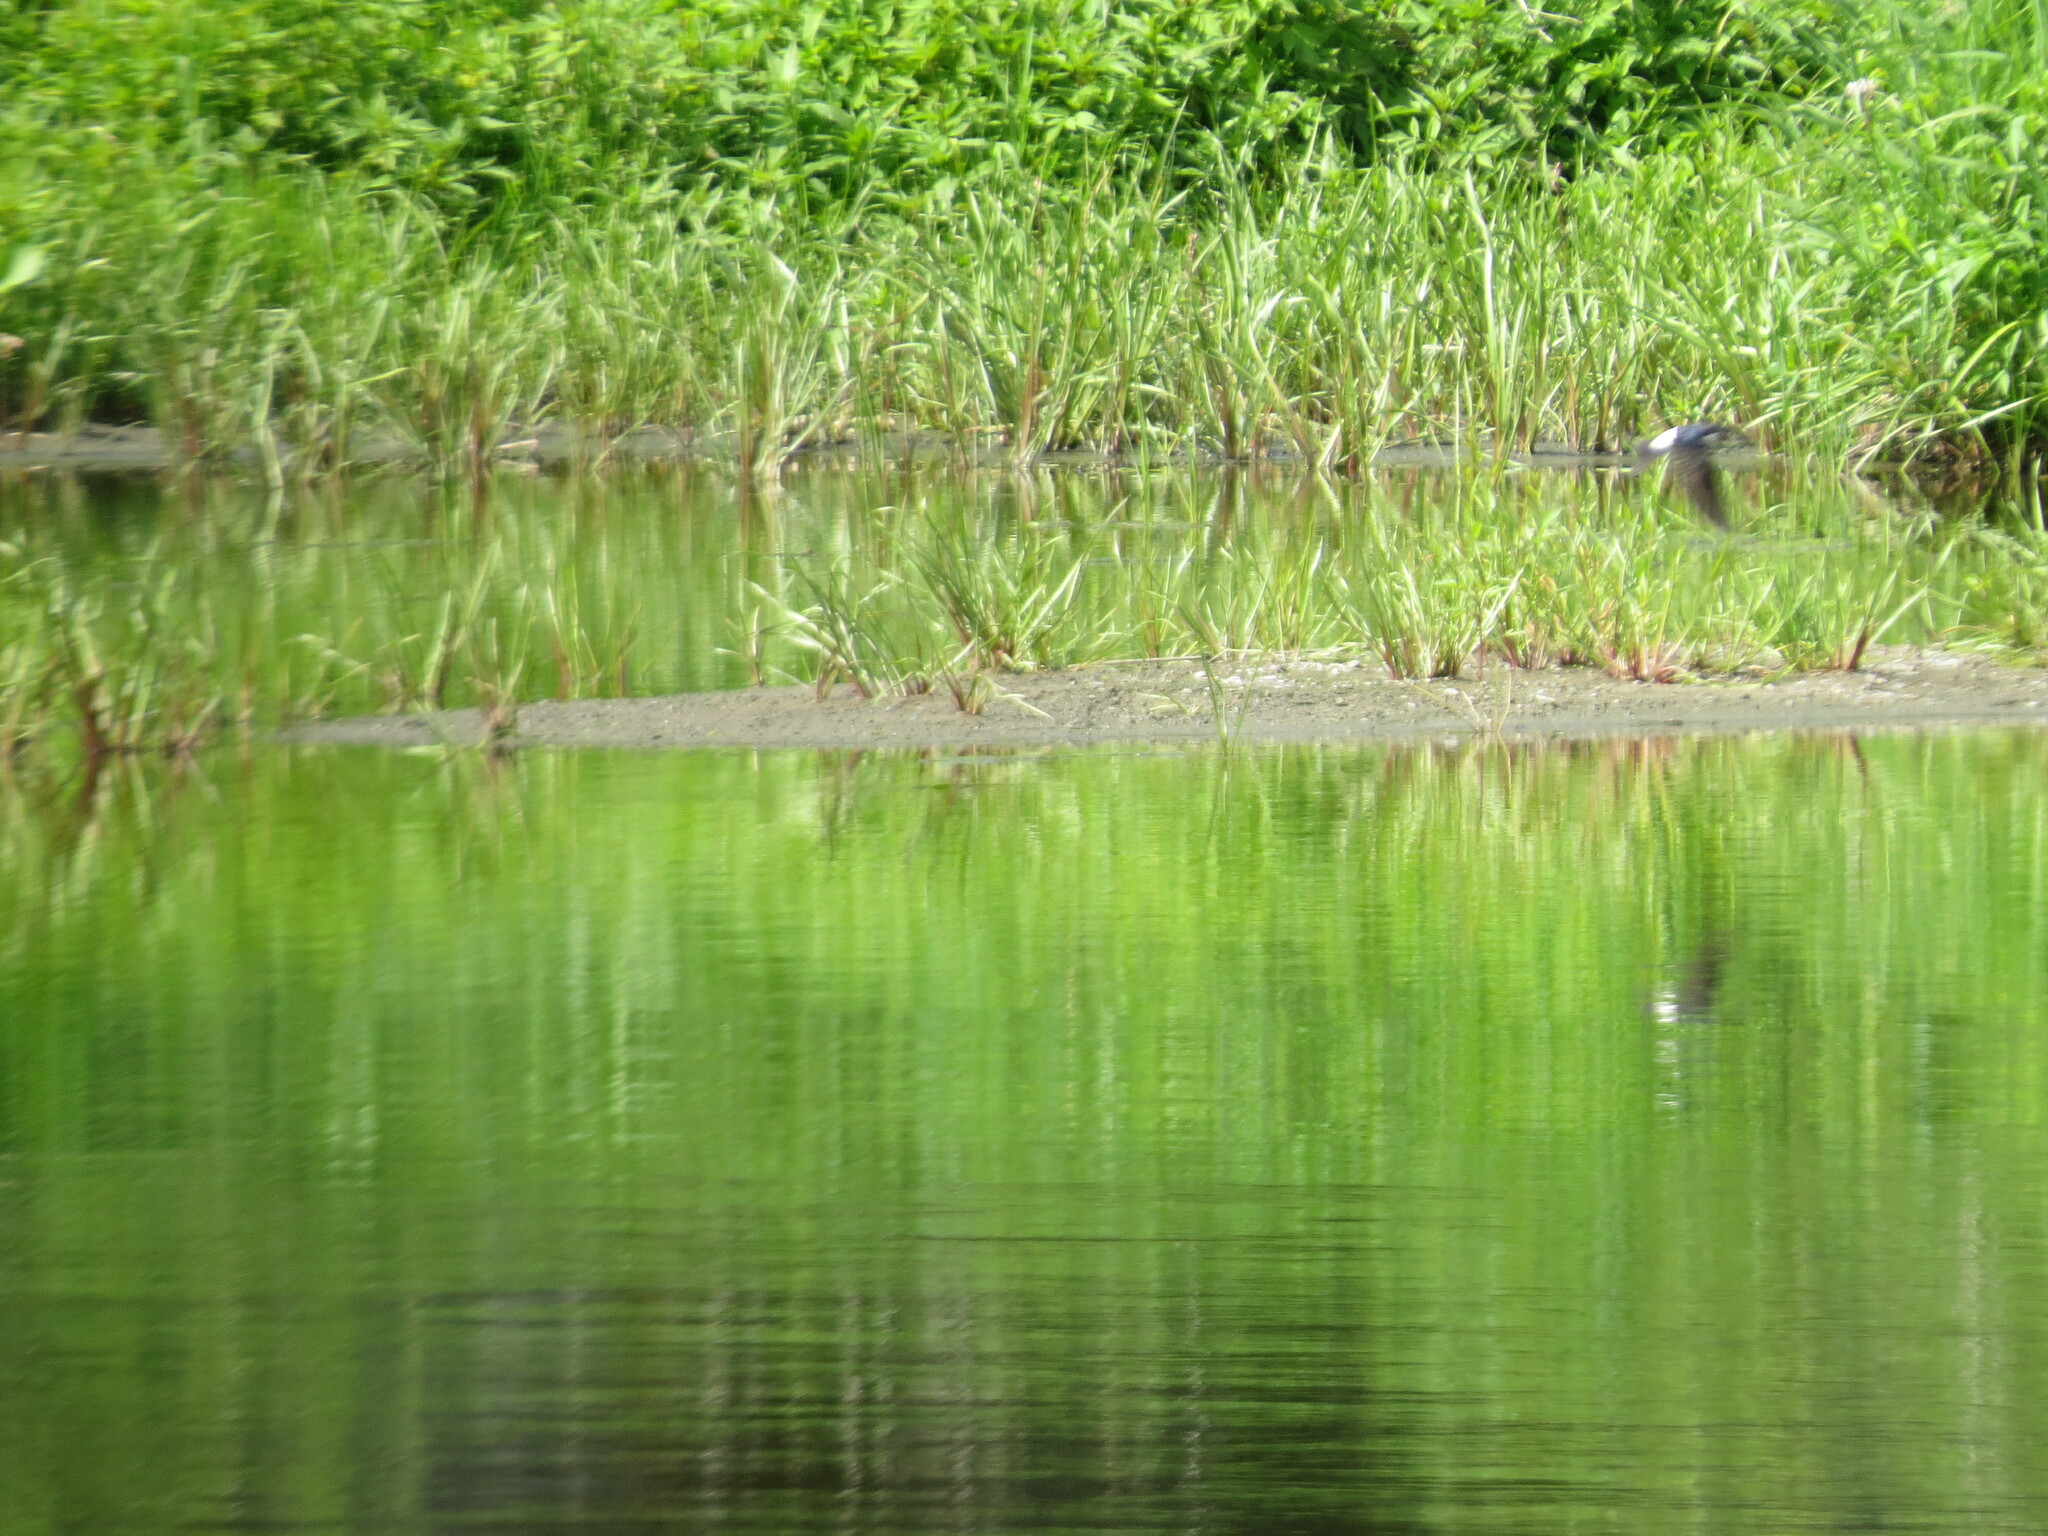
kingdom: Animalia
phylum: Chordata
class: Aves
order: Passeriformes
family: Hirundinidae
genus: Delichon
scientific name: Delichon urbicum
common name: Common house martin
